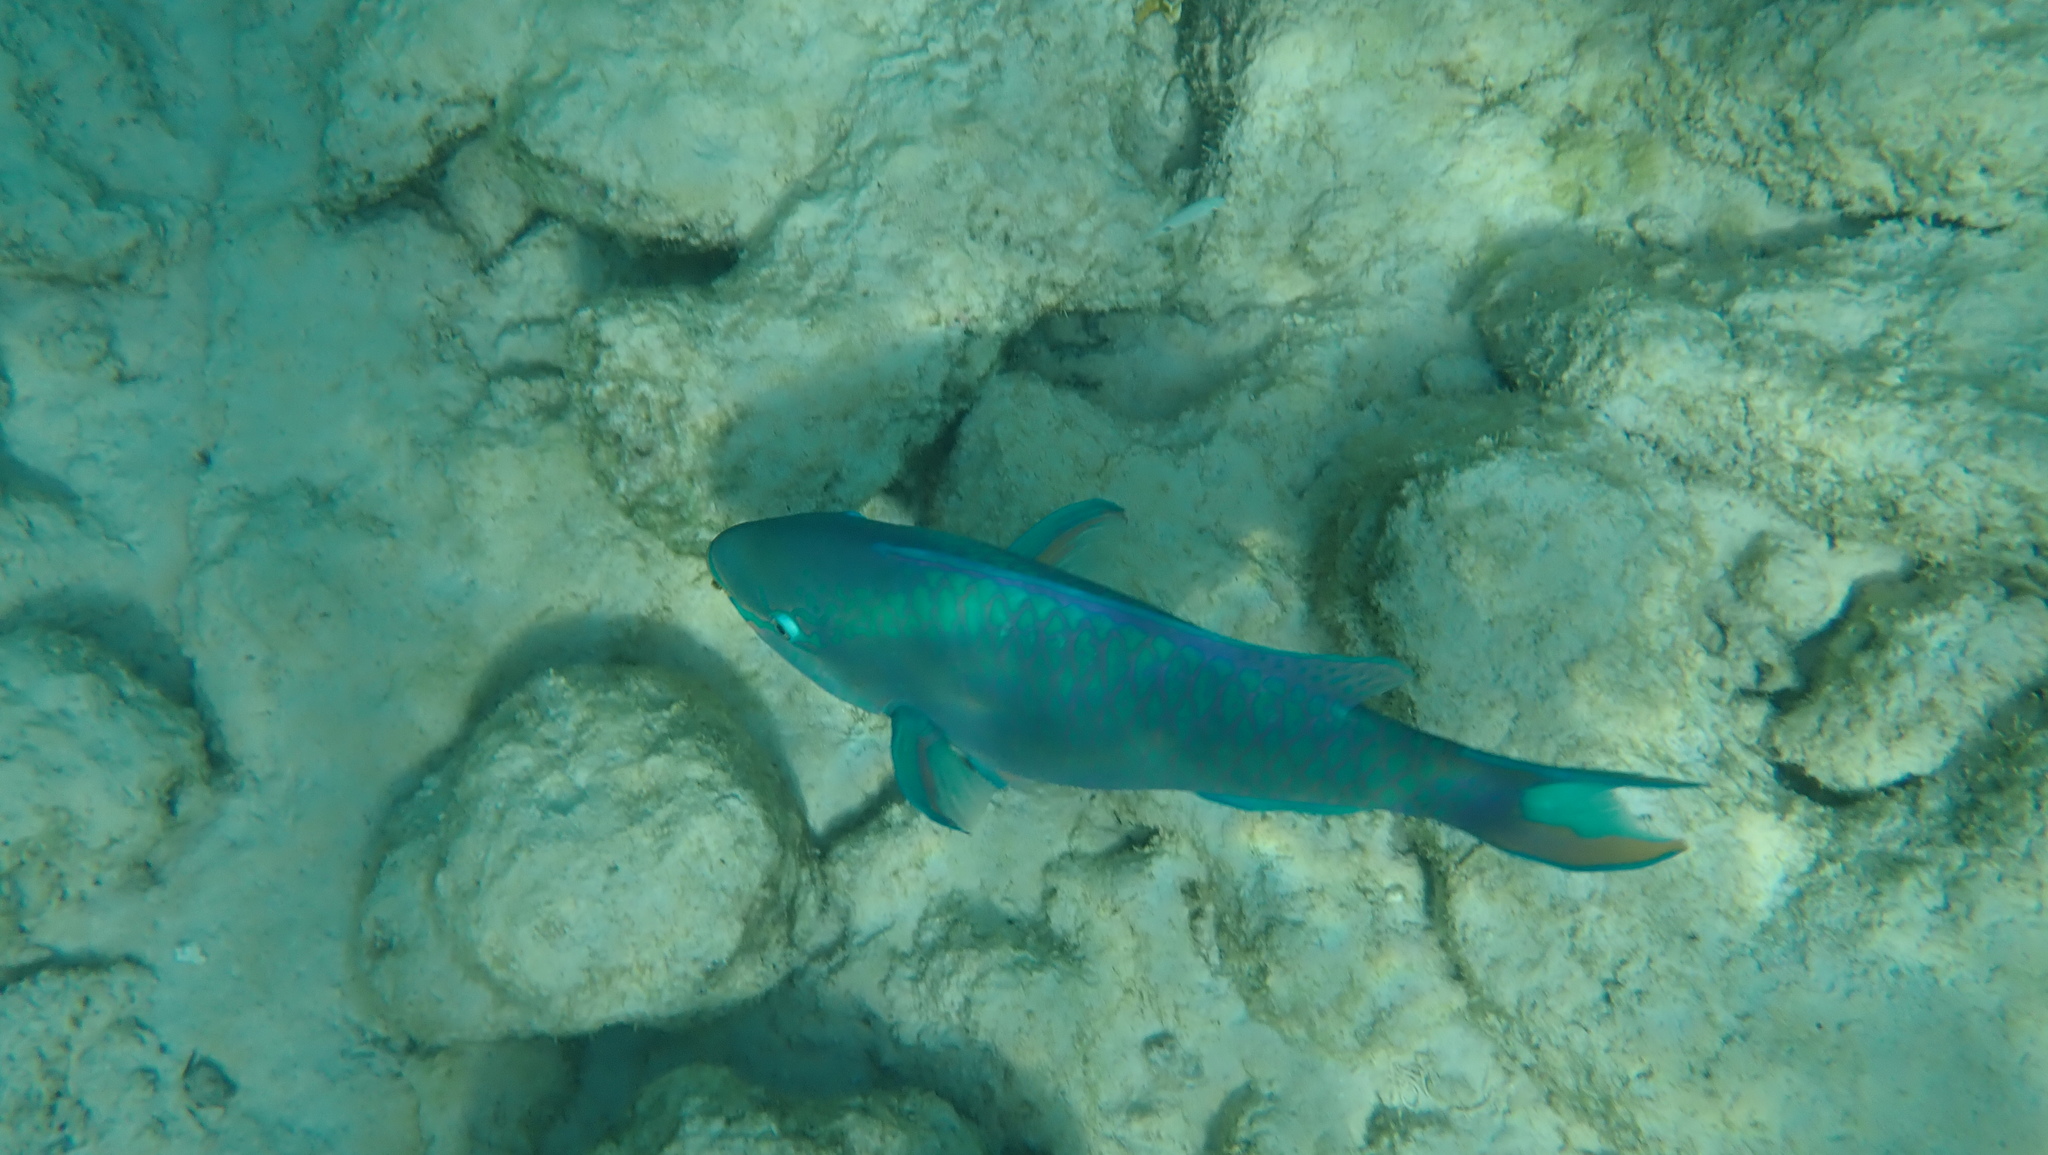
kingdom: Animalia
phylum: Chordata
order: Perciformes
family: Scaridae
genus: Scarus
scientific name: Scarus vetula
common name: Queen parrotfish
